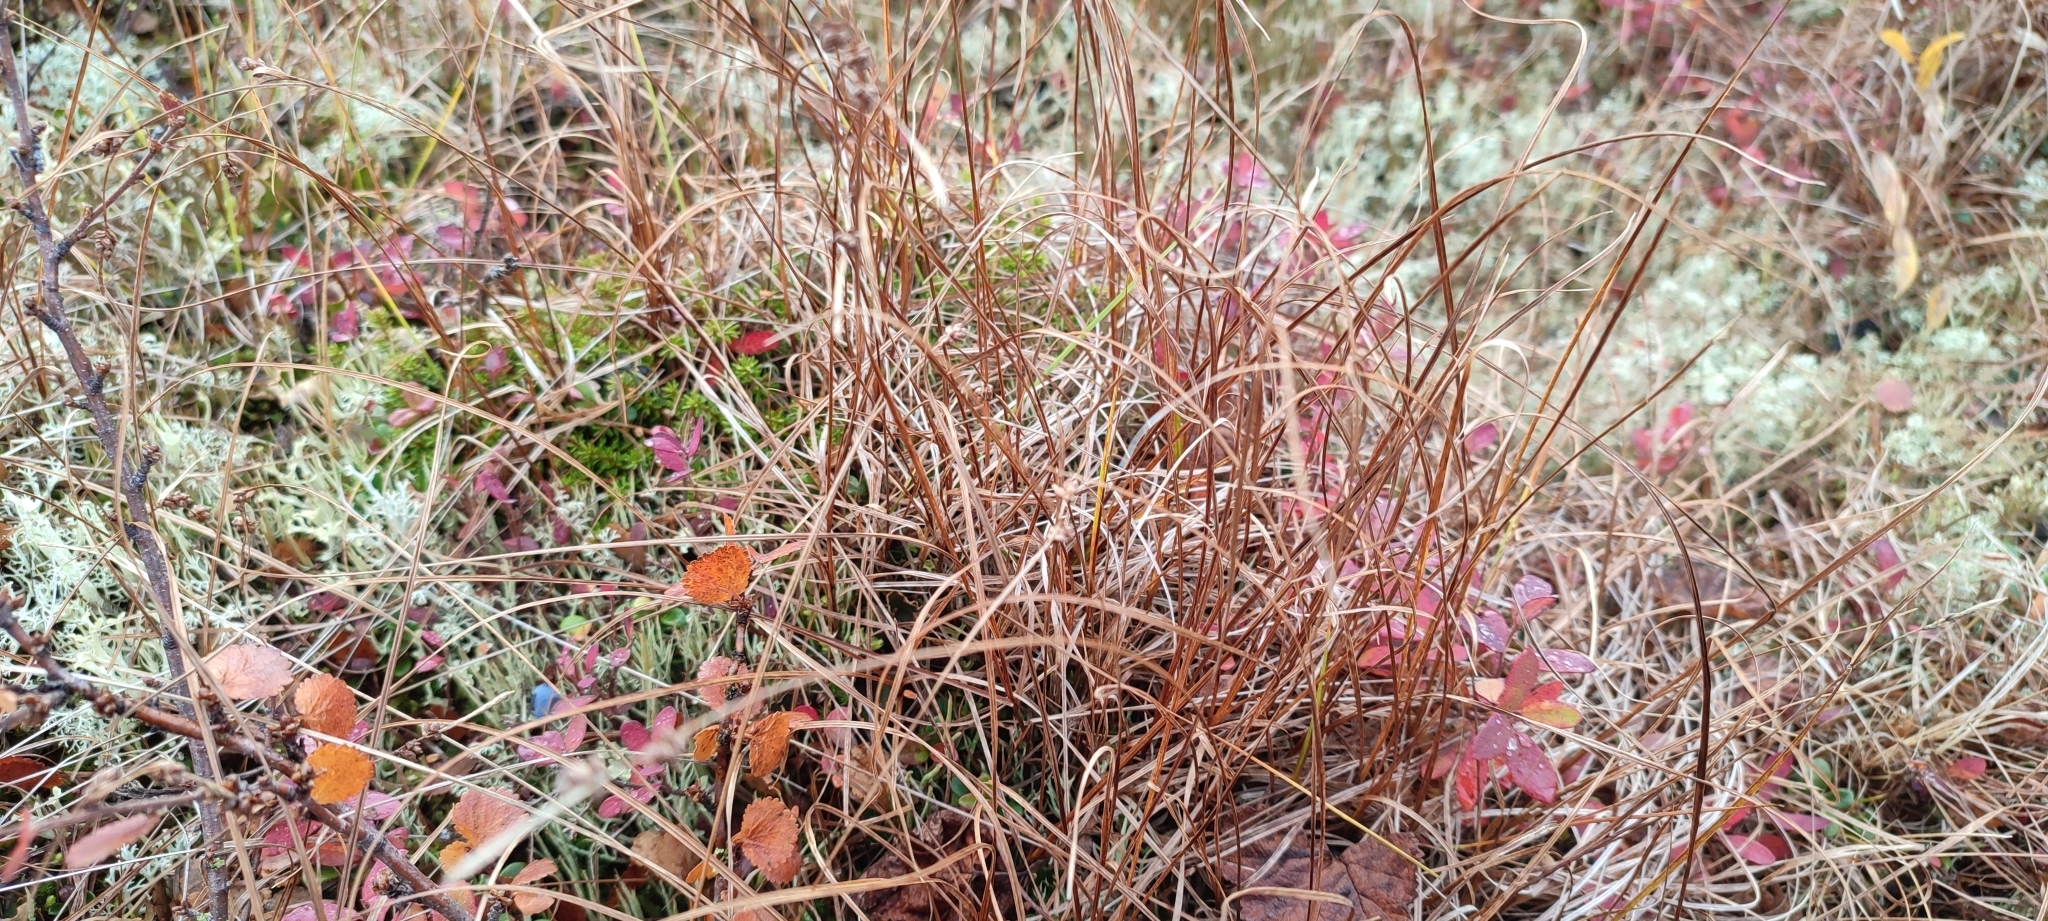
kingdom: Plantae
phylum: Tracheophyta
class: Liliopsida
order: Poales
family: Cyperaceae
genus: Carex
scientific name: Carex globularis
